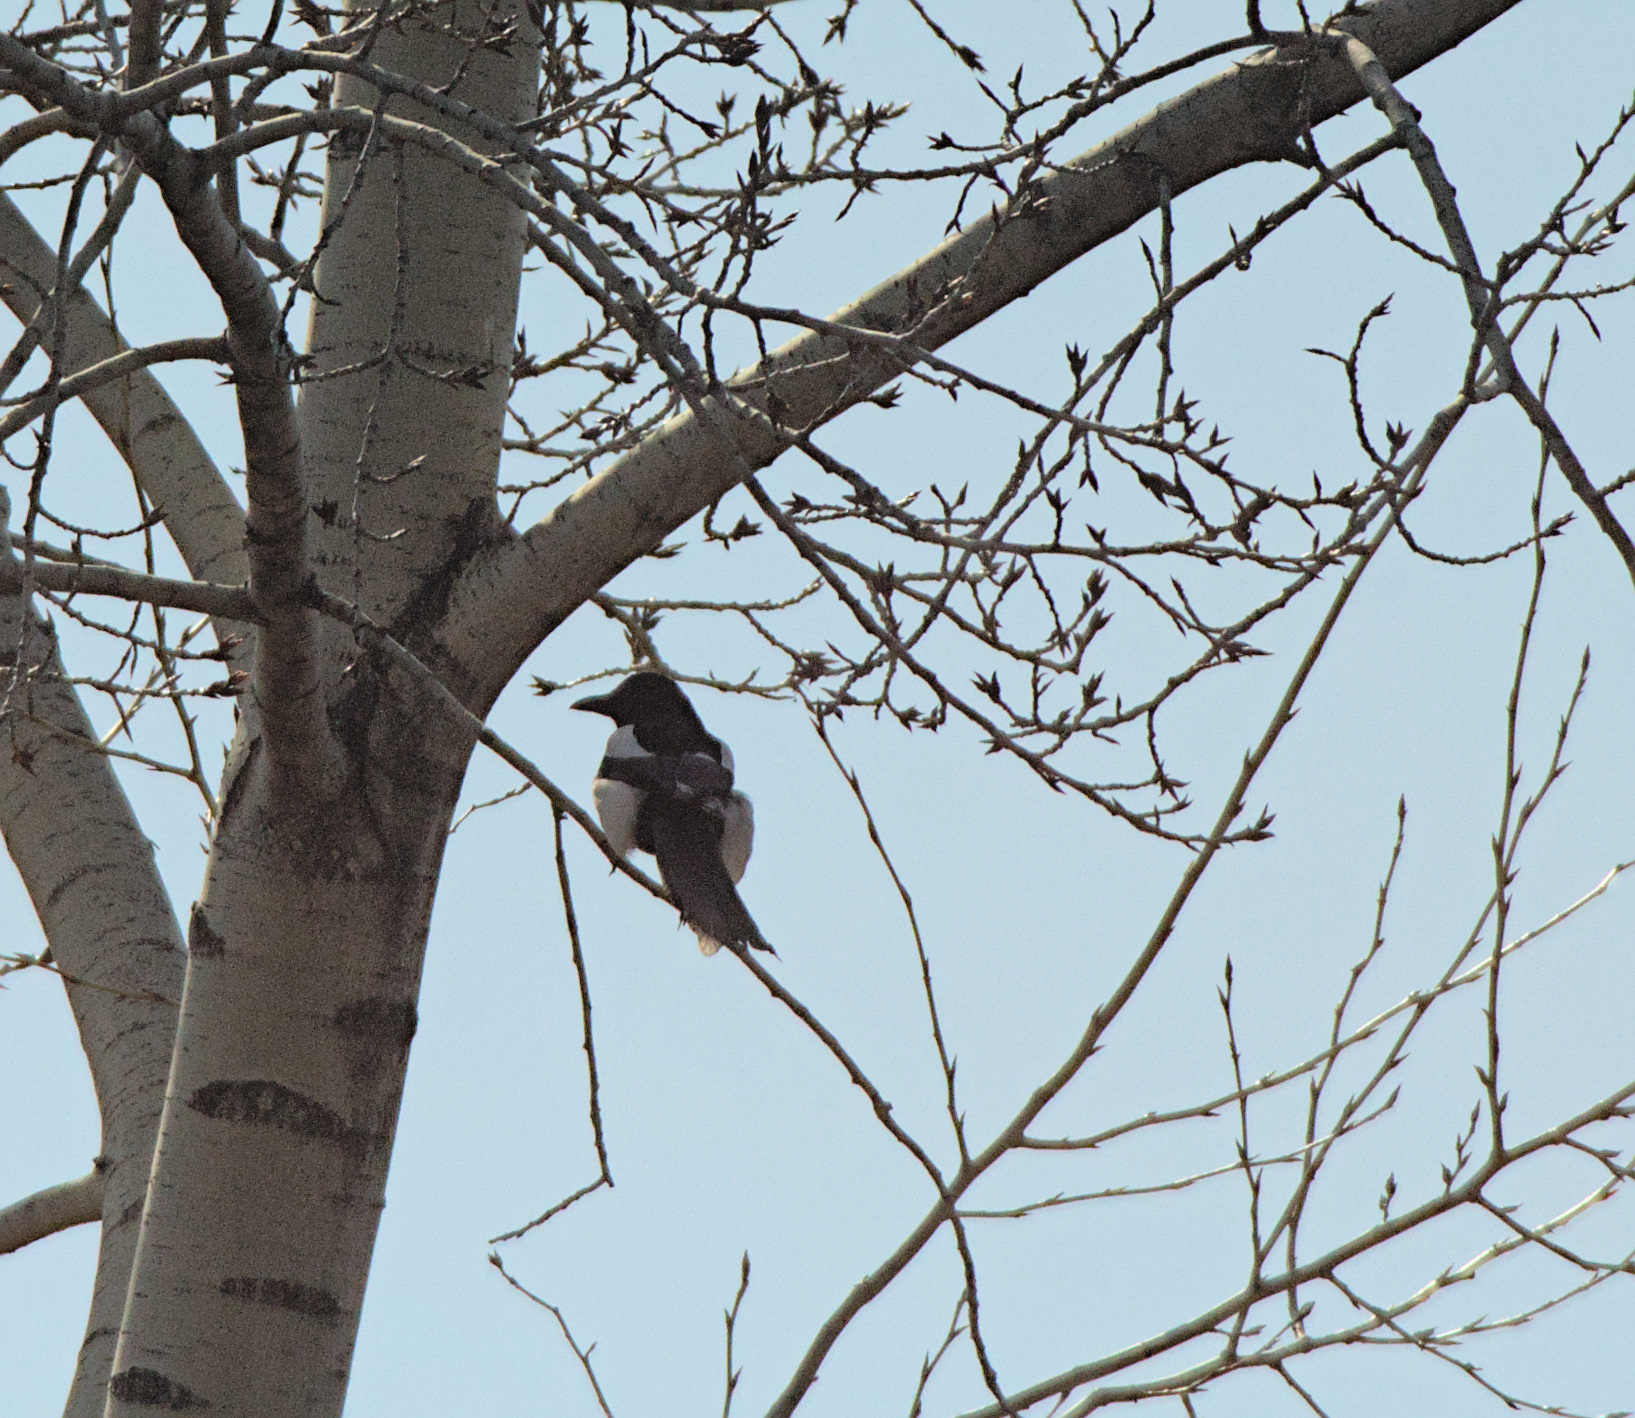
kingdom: Animalia
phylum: Chordata
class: Aves
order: Passeriformes
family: Corvidae
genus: Pica
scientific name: Pica pica
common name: Eurasian magpie
